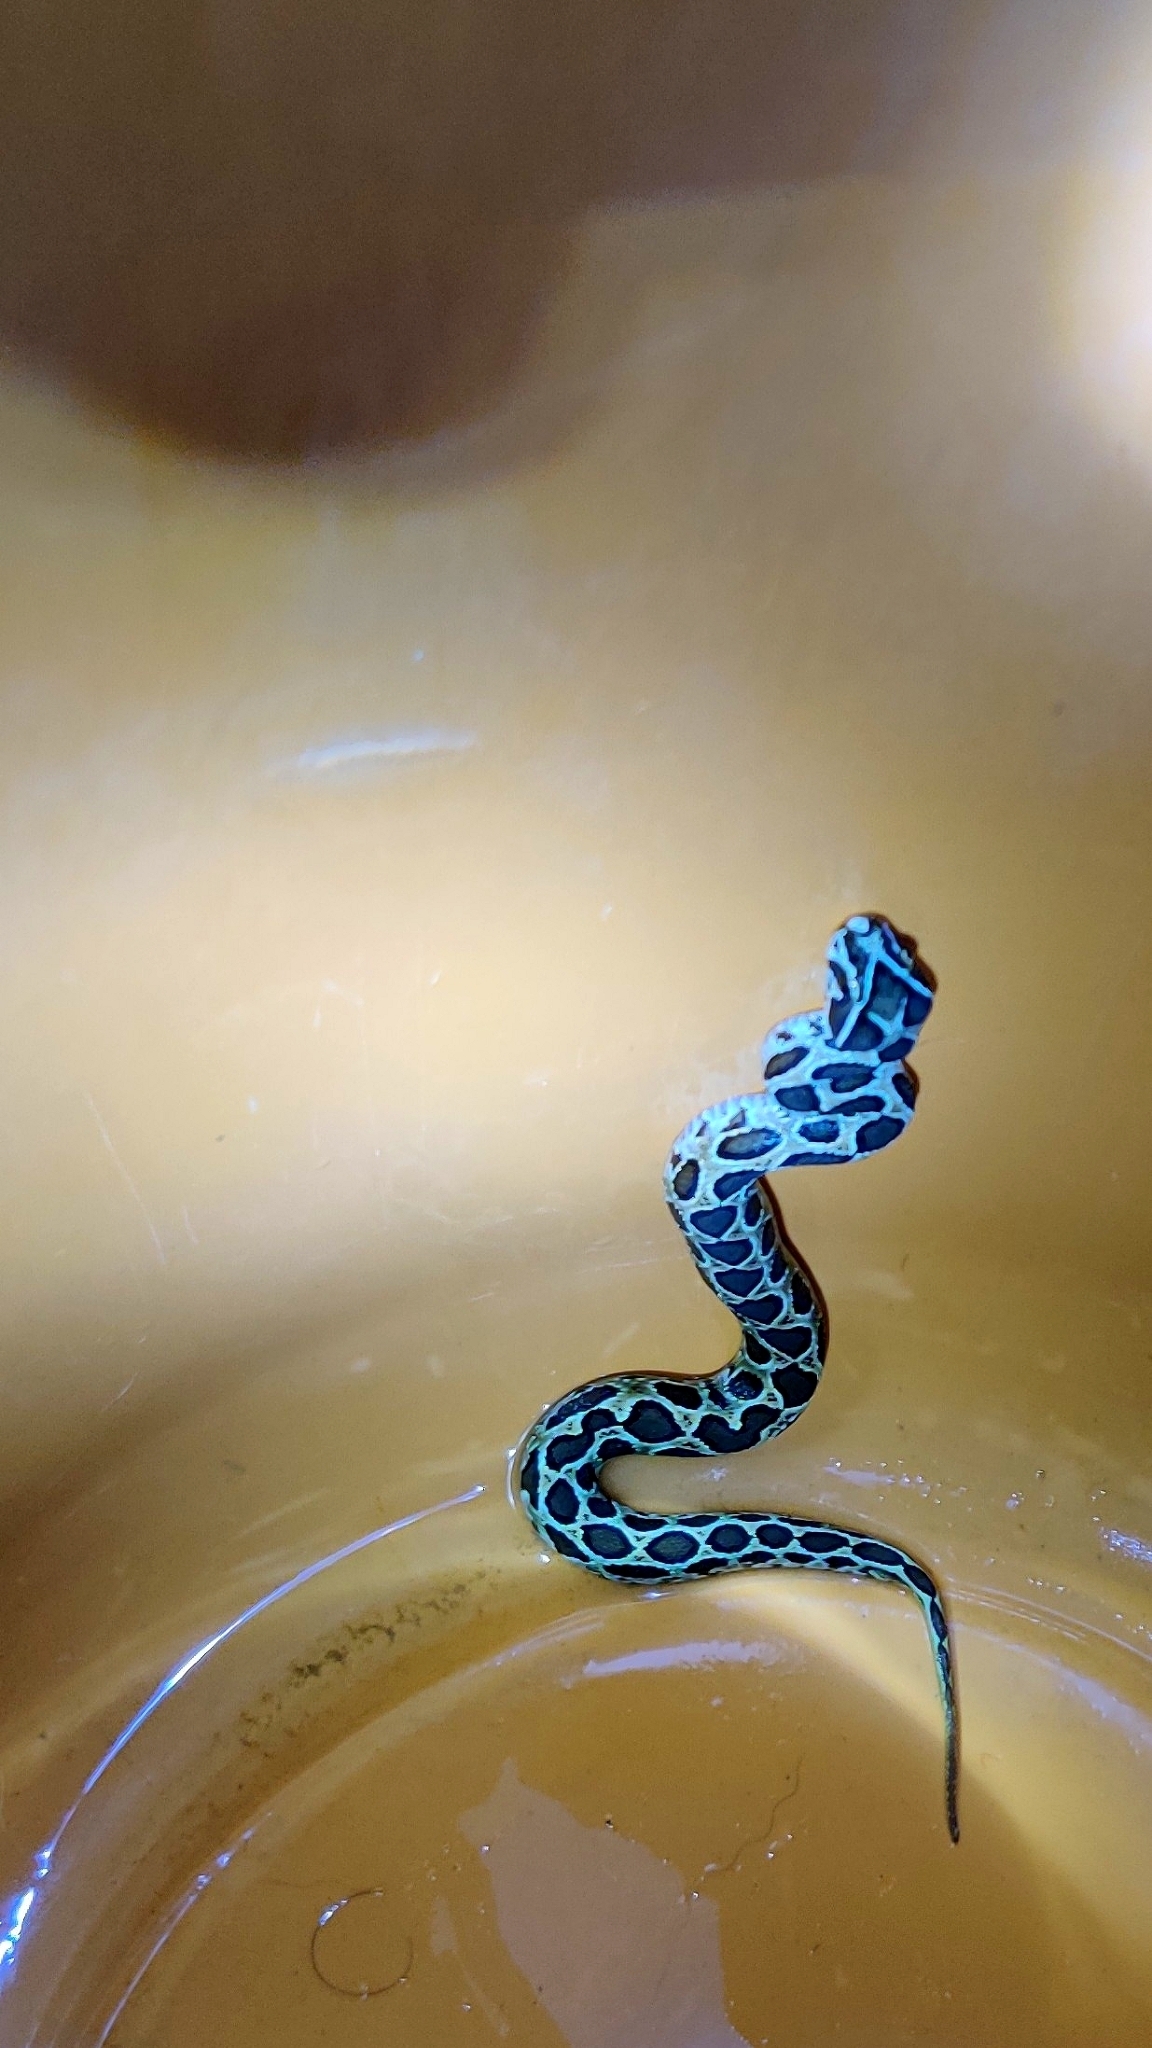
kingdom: Animalia
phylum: Chordata
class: Squamata
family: Viperidae
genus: Daboia
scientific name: Daboia russelii
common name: Western russel’s viper
